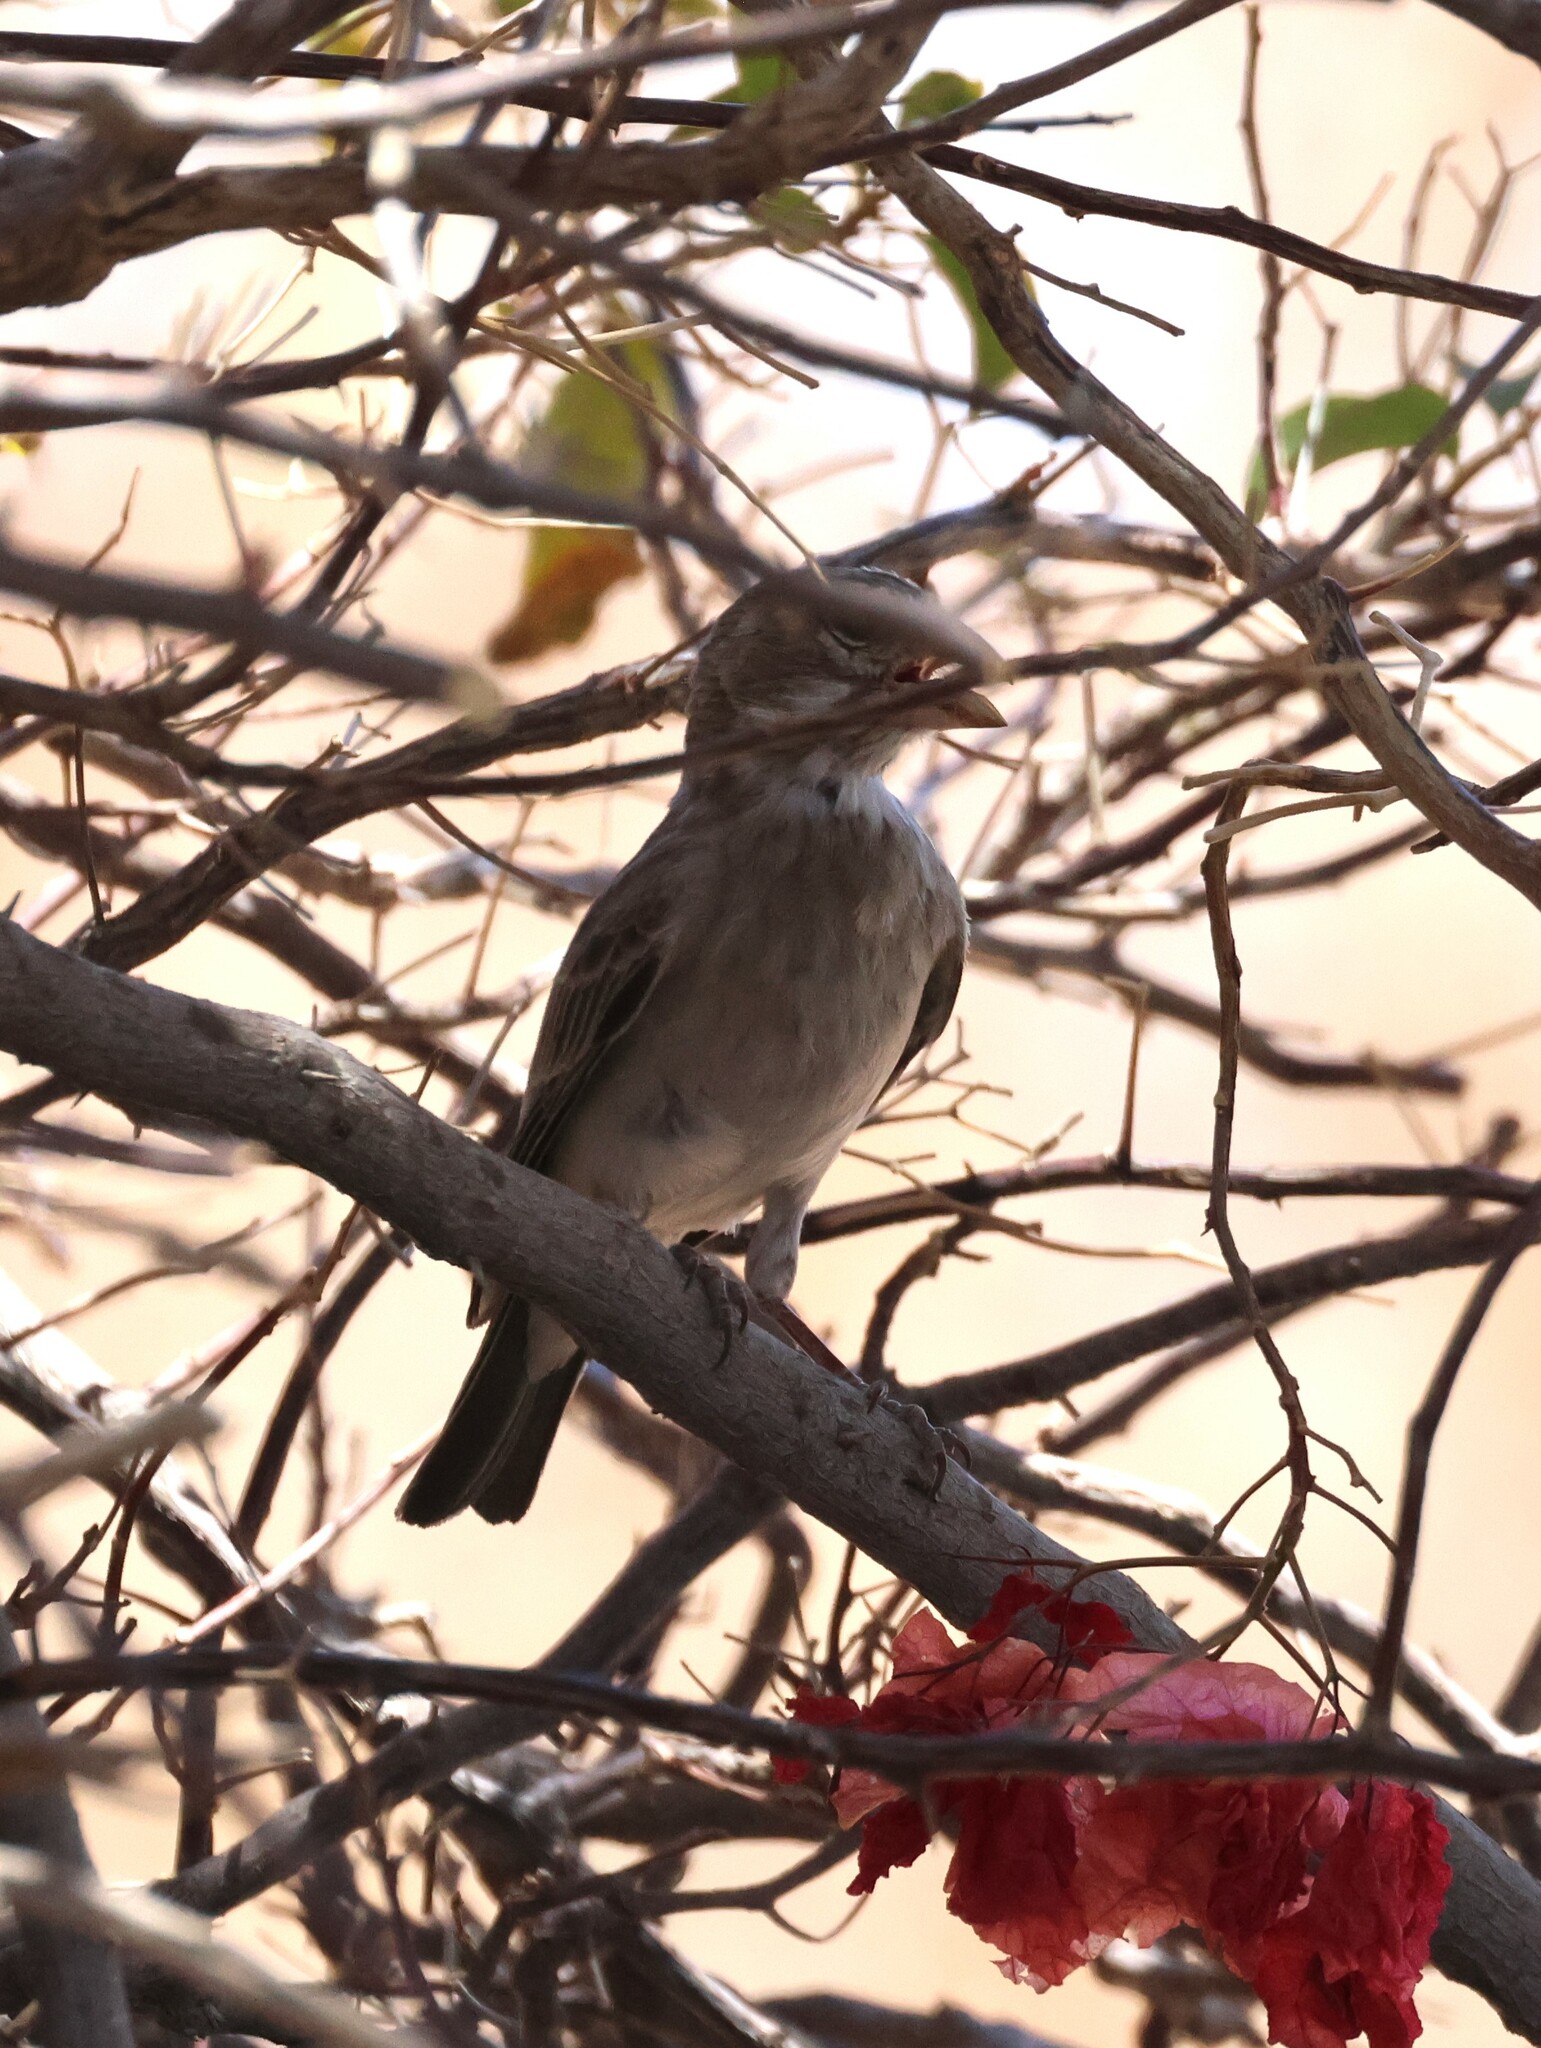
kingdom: Animalia
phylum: Chordata
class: Aves
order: Passeriformes
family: Fringillidae
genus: Crithagra
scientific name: Crithagra albogularis
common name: White-throated canary
